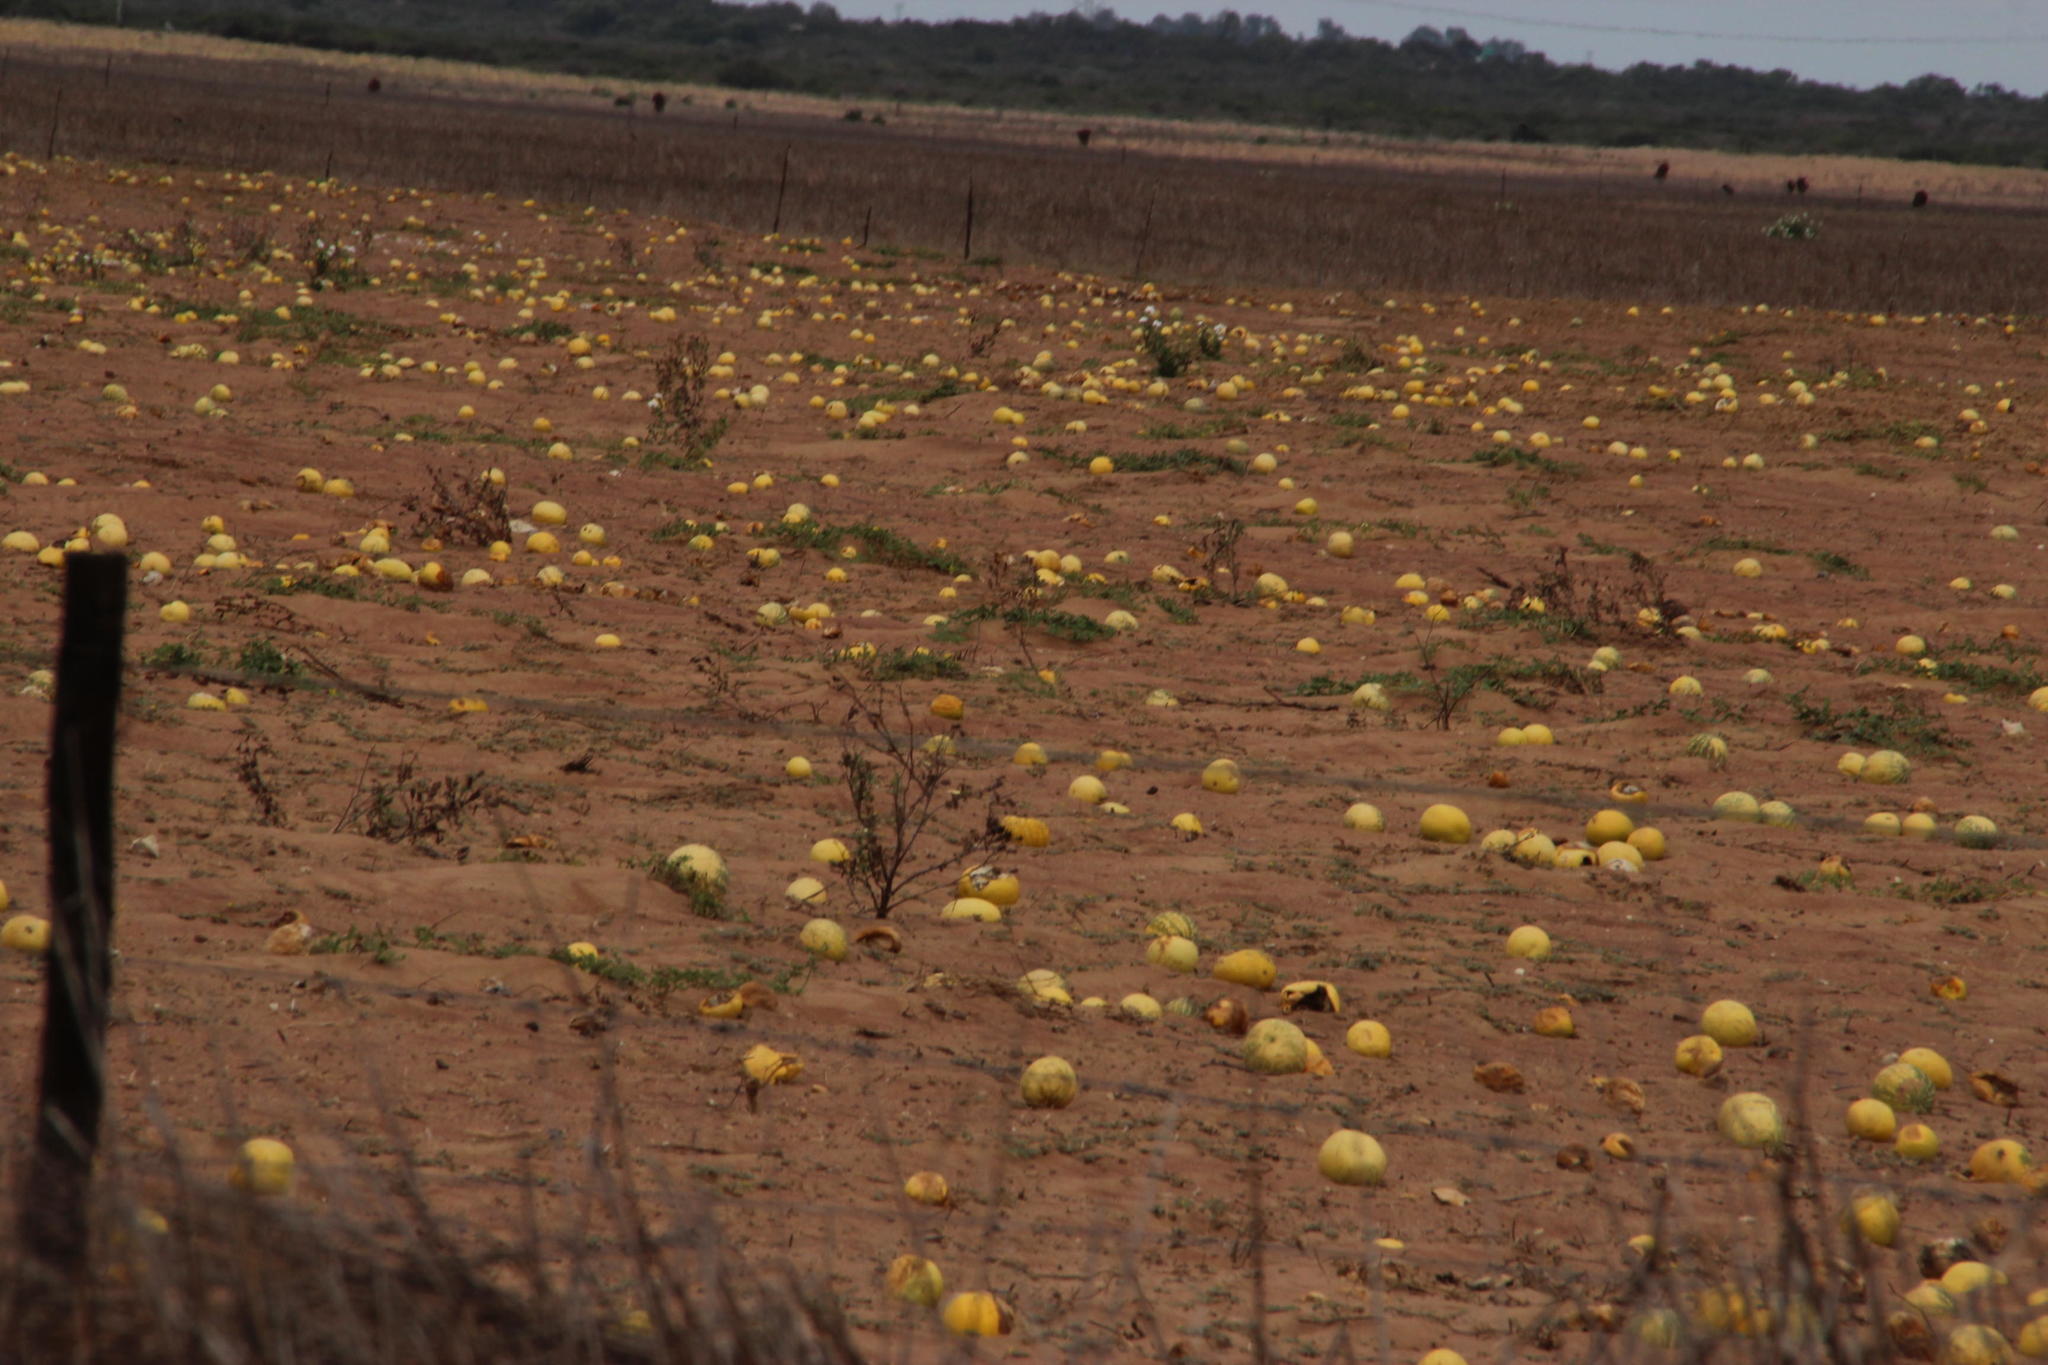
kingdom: Plantae
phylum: Tracheophyta
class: Magnoliopsida
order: Cucurbitales
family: Cucurbitaceae
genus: Citrullus
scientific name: Citrullus amarus
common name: Fodder-melon
